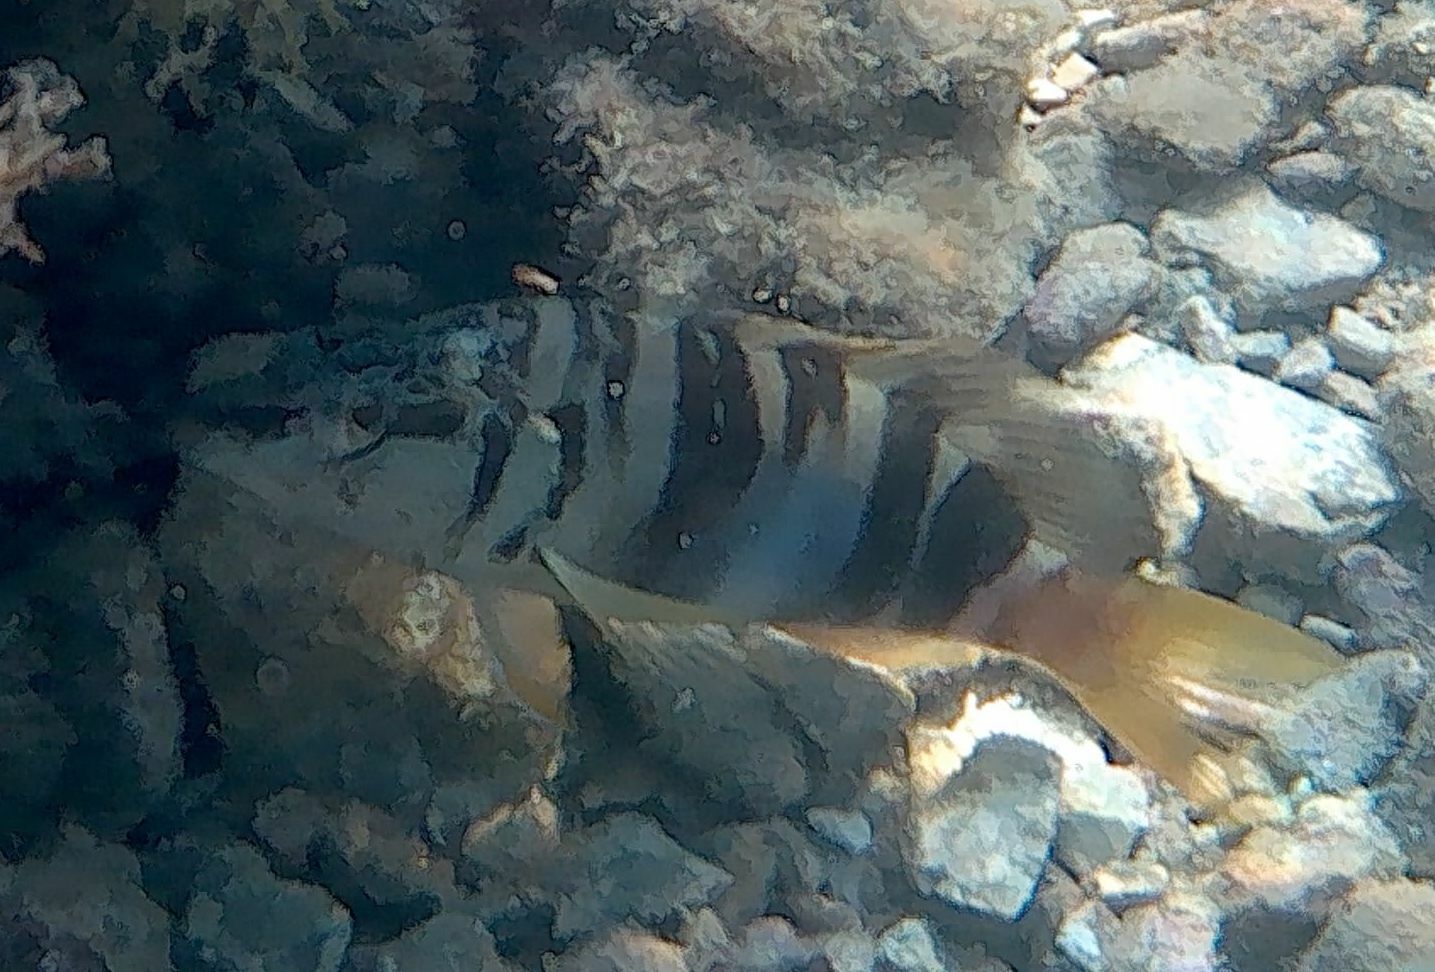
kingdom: Animalia
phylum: Chordata
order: Perciformes
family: Serranidae
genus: Serranus
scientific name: Serranus scriba
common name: Painted comber
